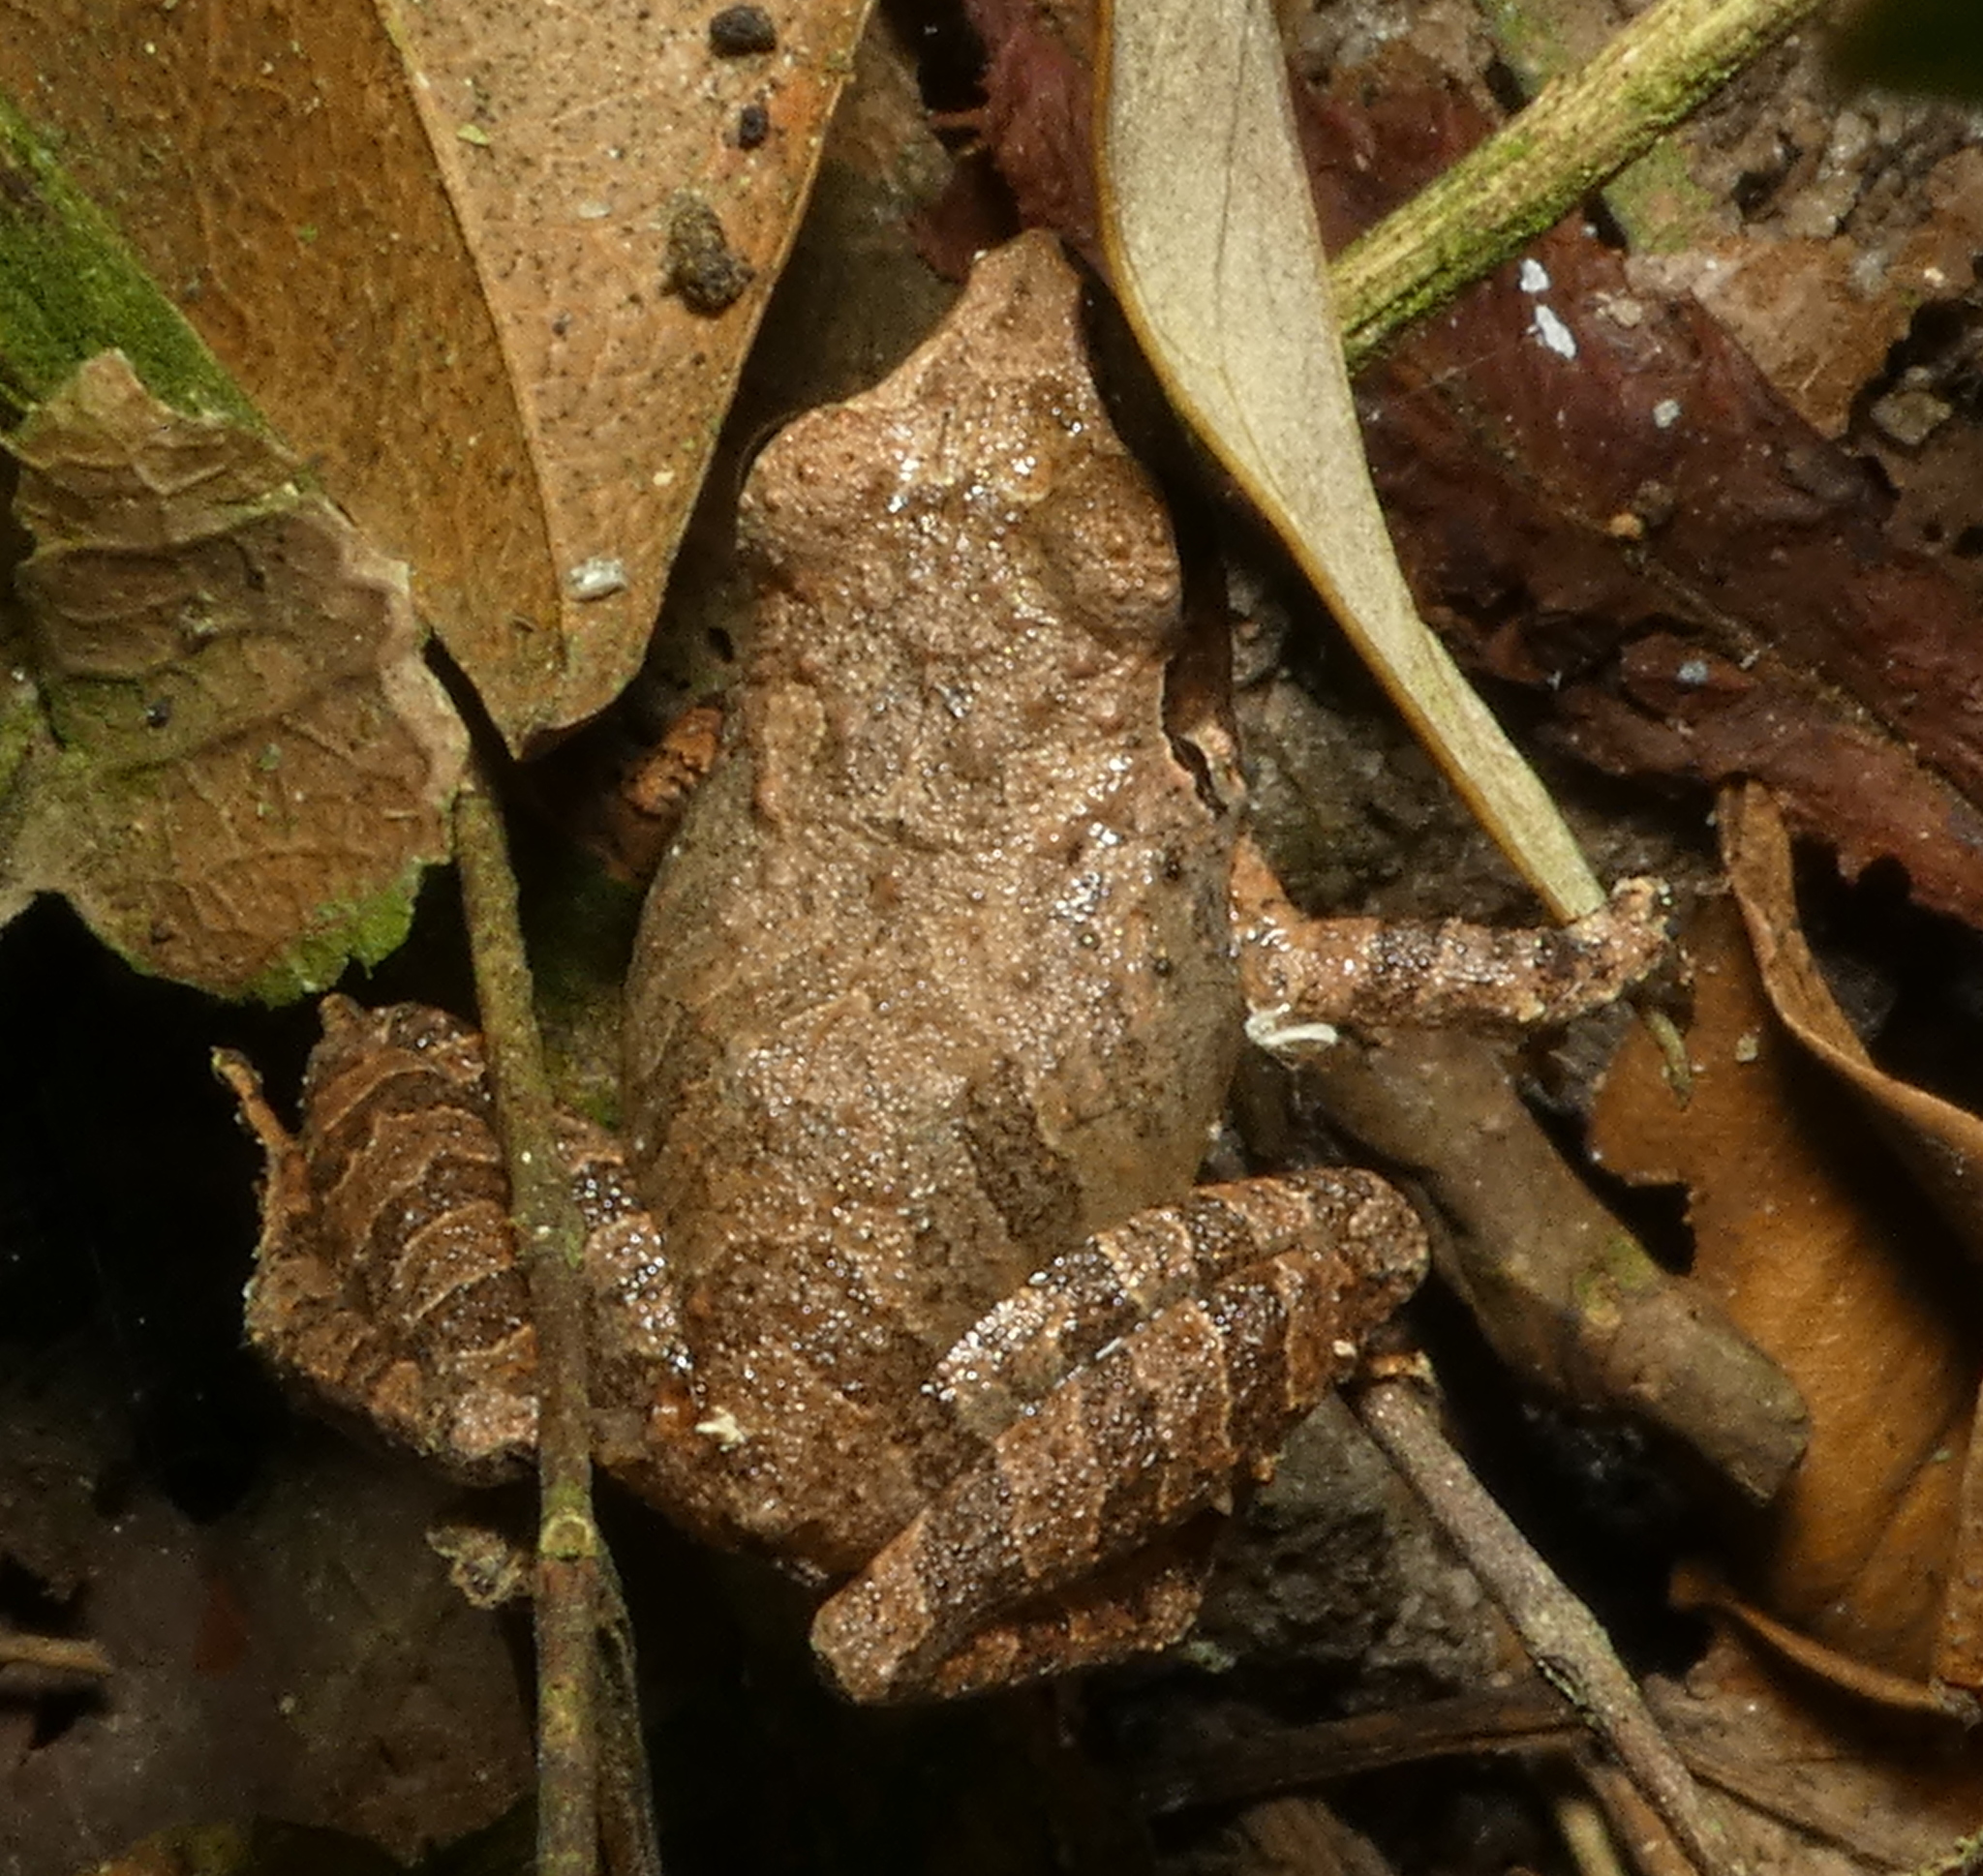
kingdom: Animalia
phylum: Chordata
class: Amphibia
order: Anura
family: Craugastoridae
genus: Pristimantis
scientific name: Pristimantis ramagii
